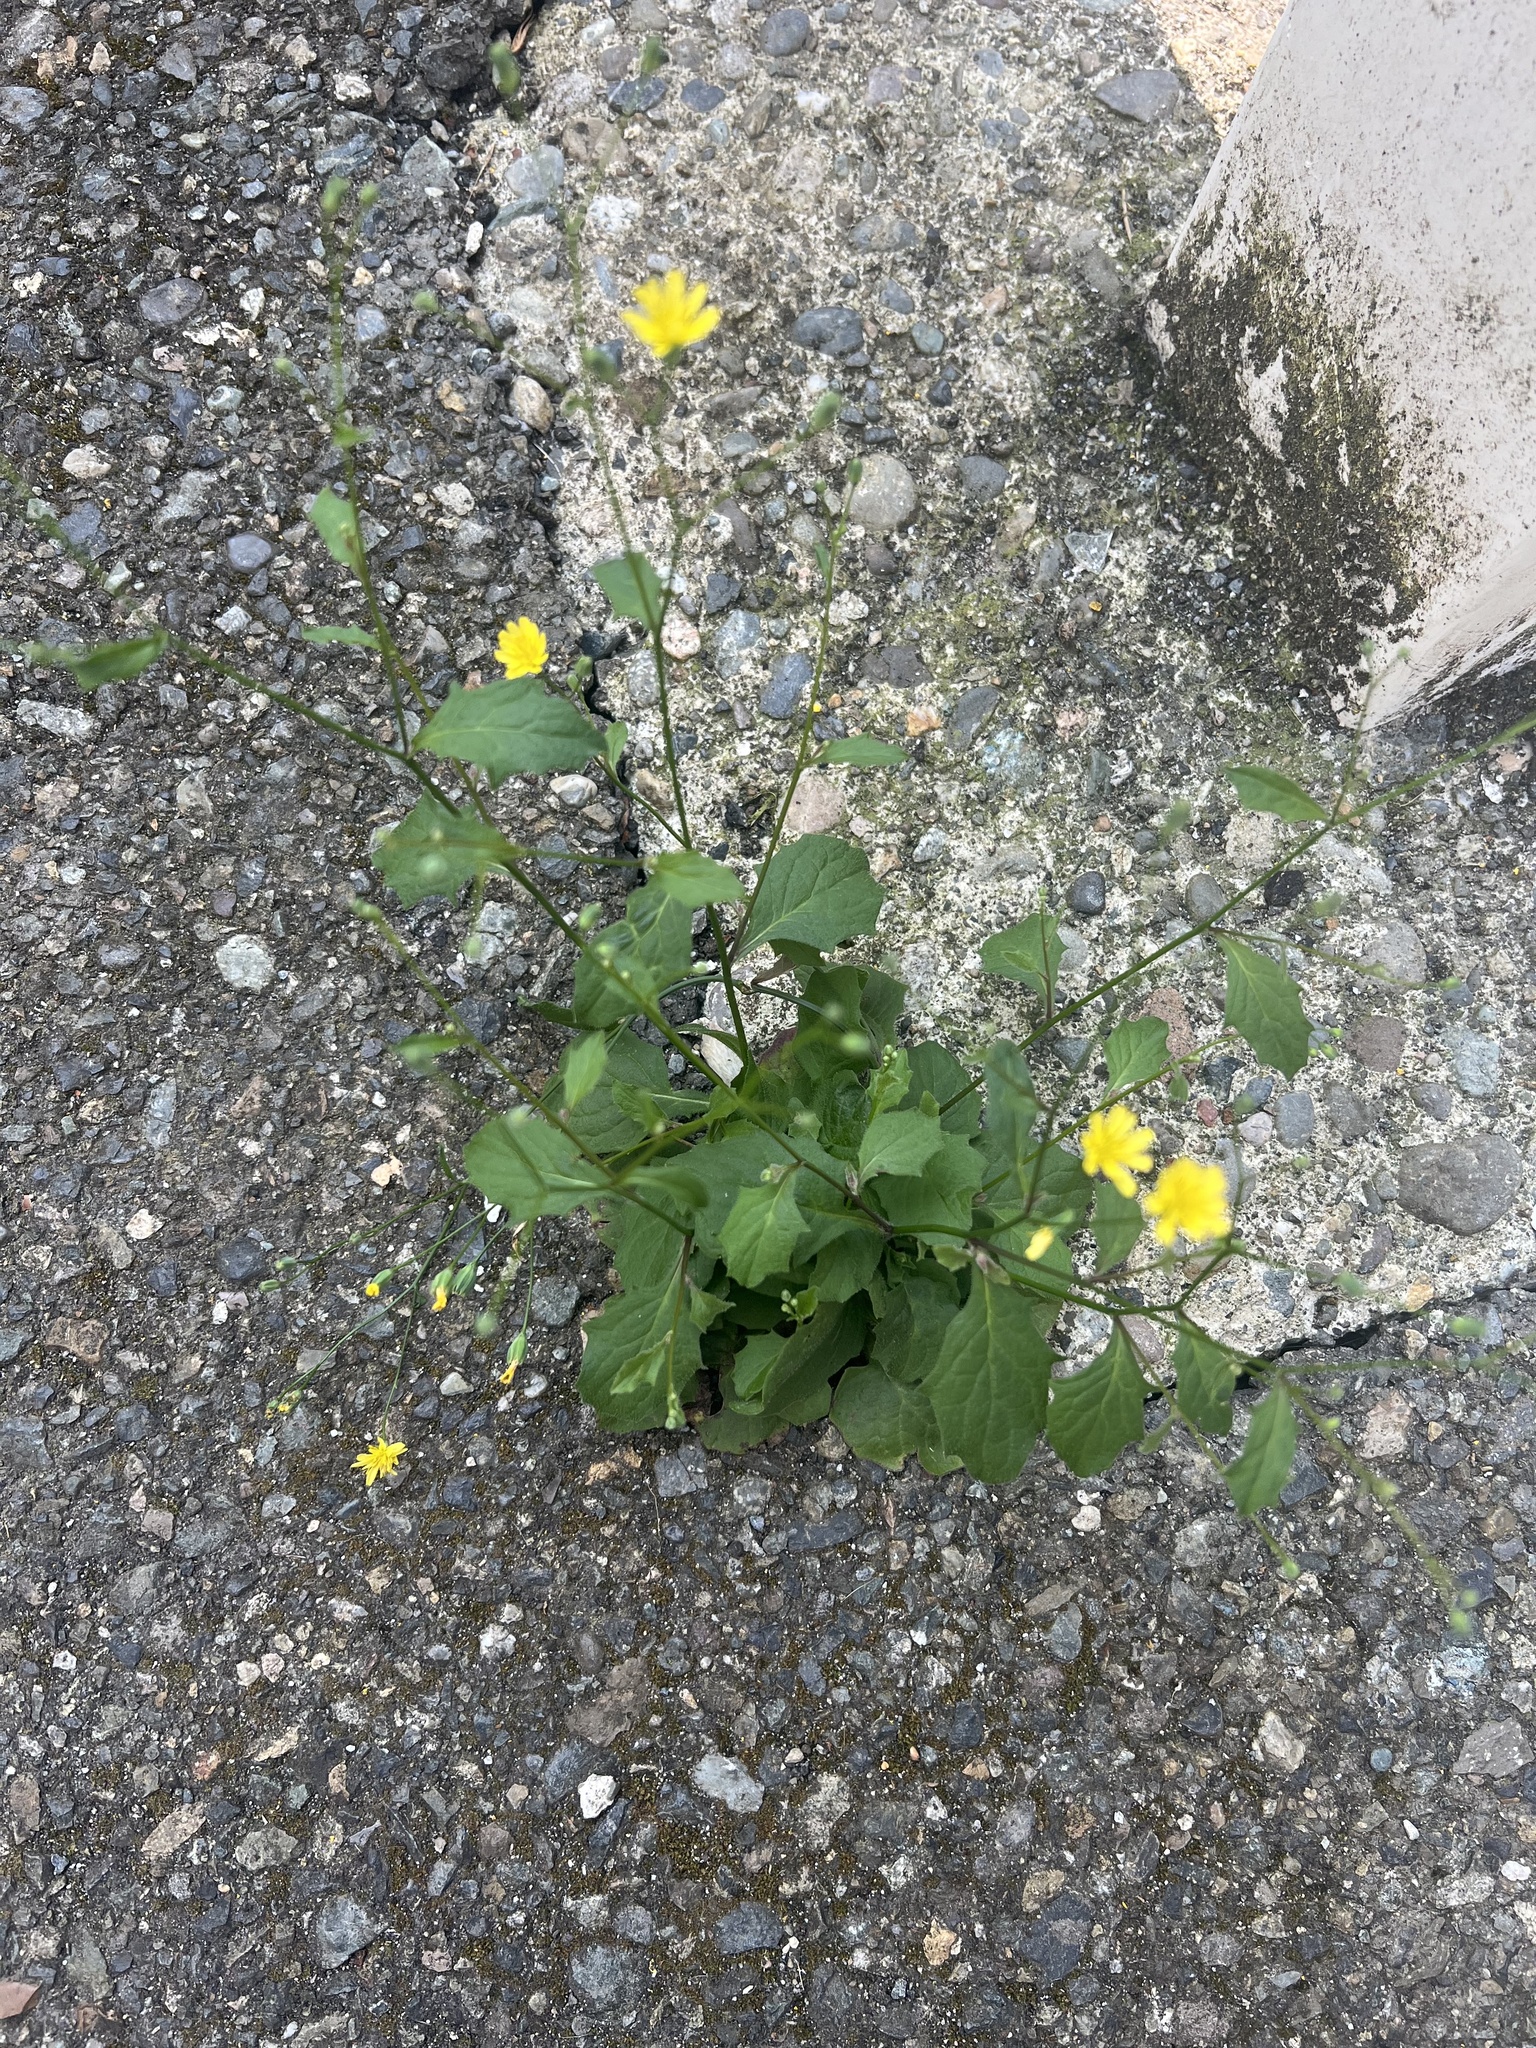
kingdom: Plantae
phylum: Tracheophyta
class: Magnoliopsida
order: Asterales
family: Asteraceae
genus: Lapsana
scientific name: Lapsana communis
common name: Nipplewort
